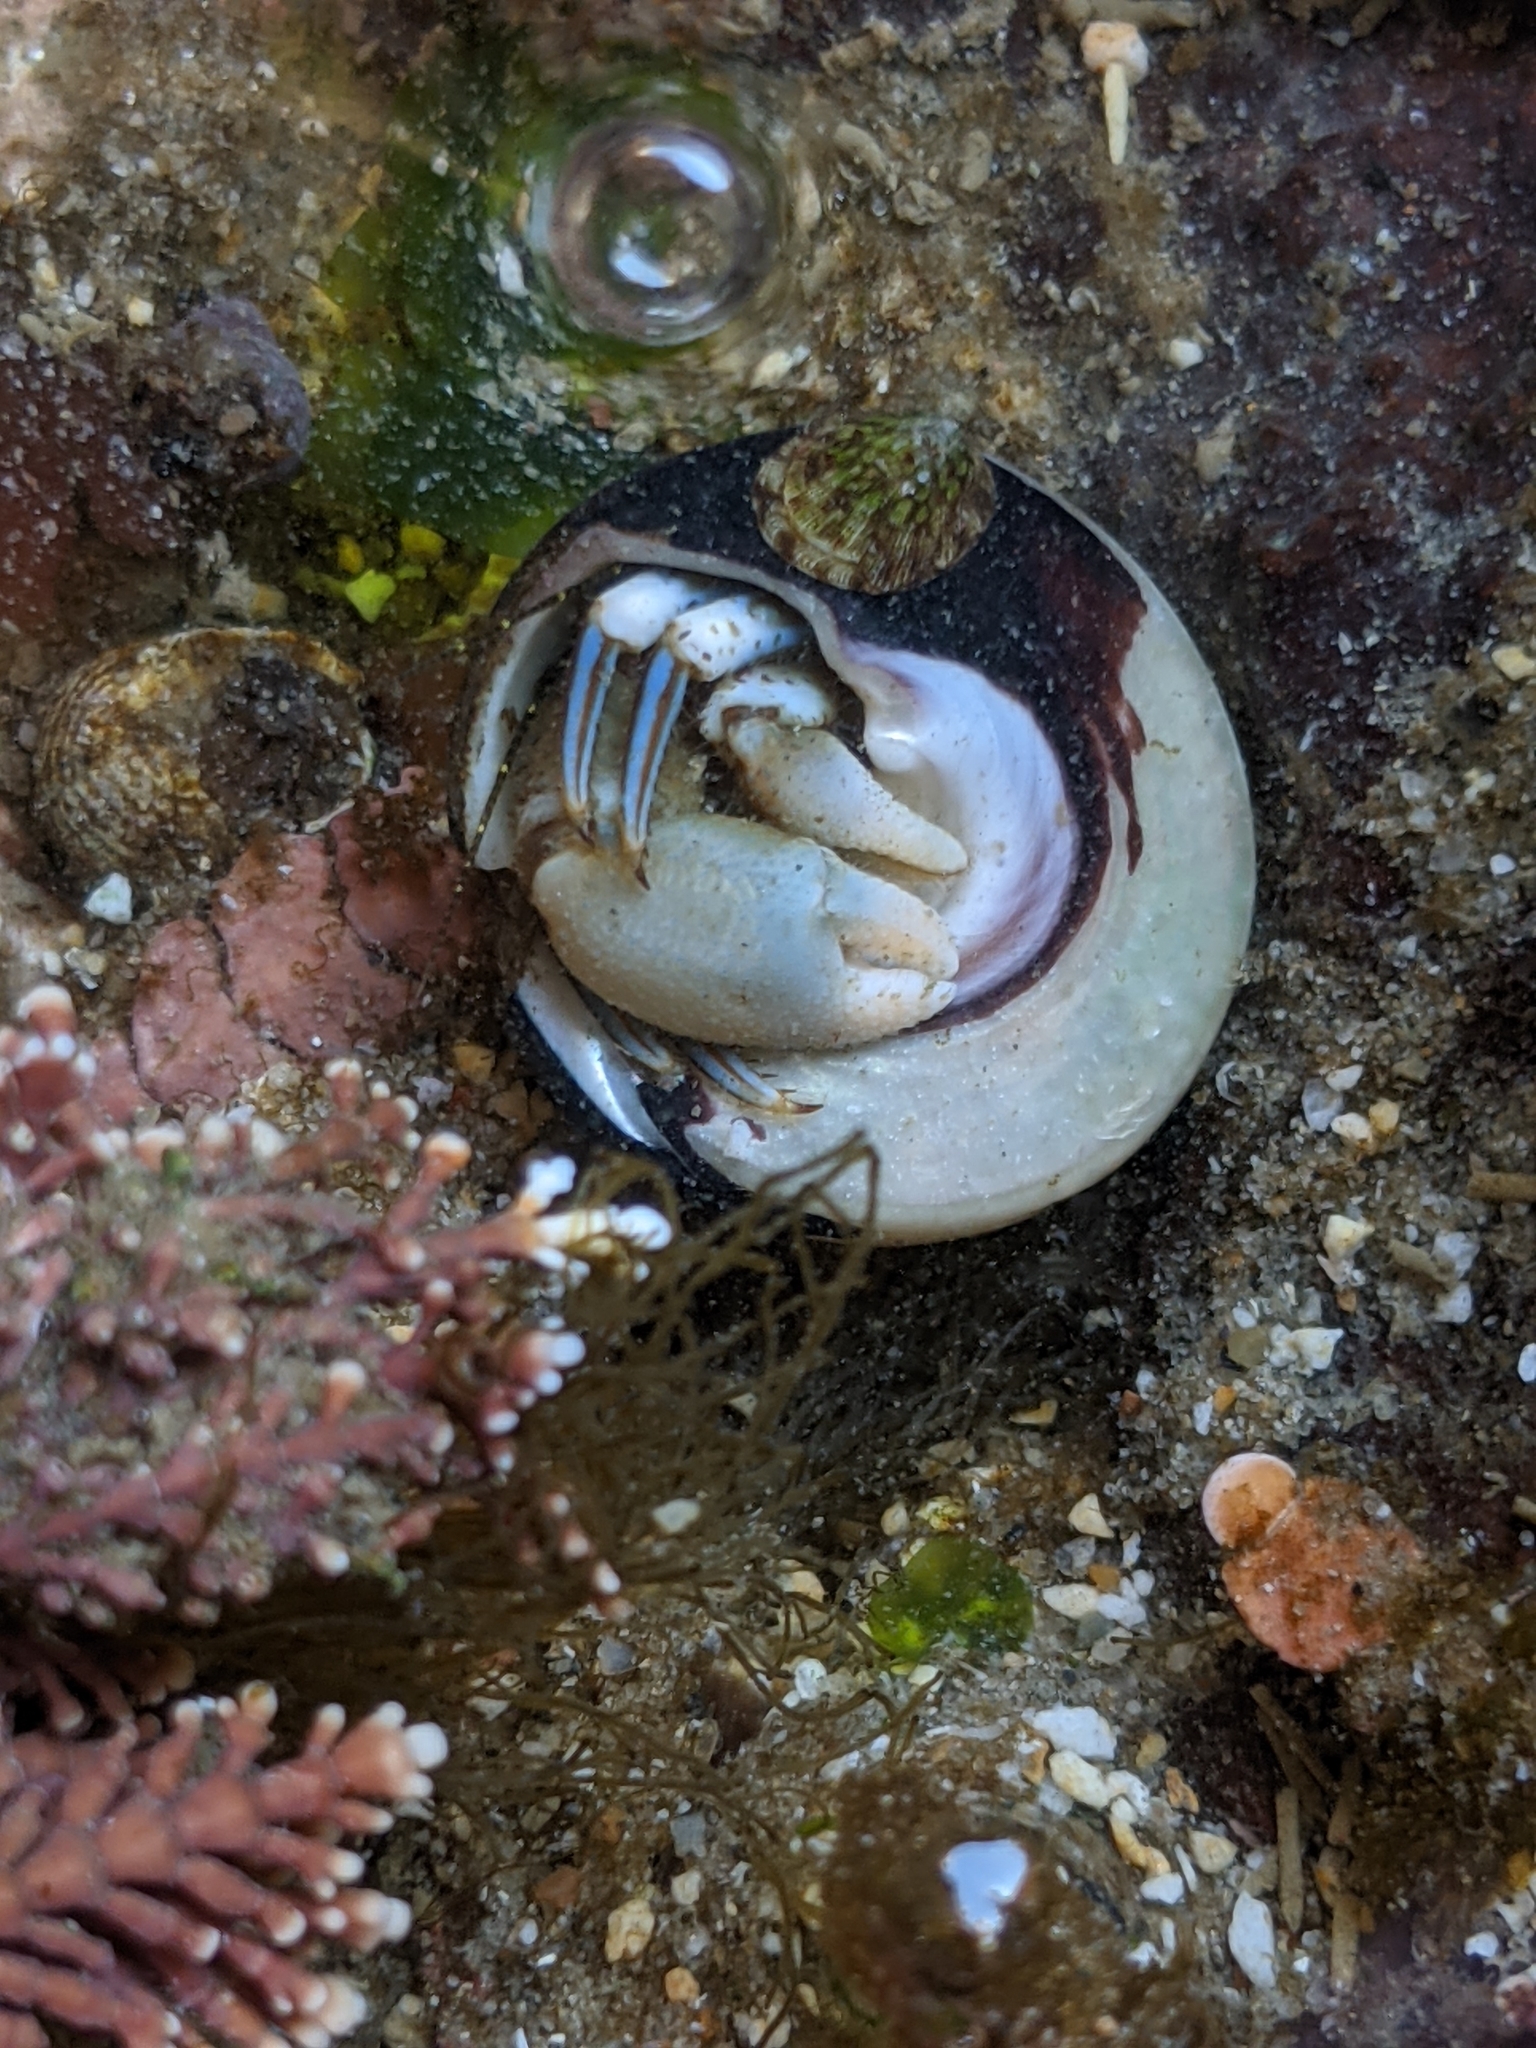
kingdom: Animalia
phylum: Arthropoda
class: Malacostraca
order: Decapoda
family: Paguridae
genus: Pagurus
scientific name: Pagurus venturensis
